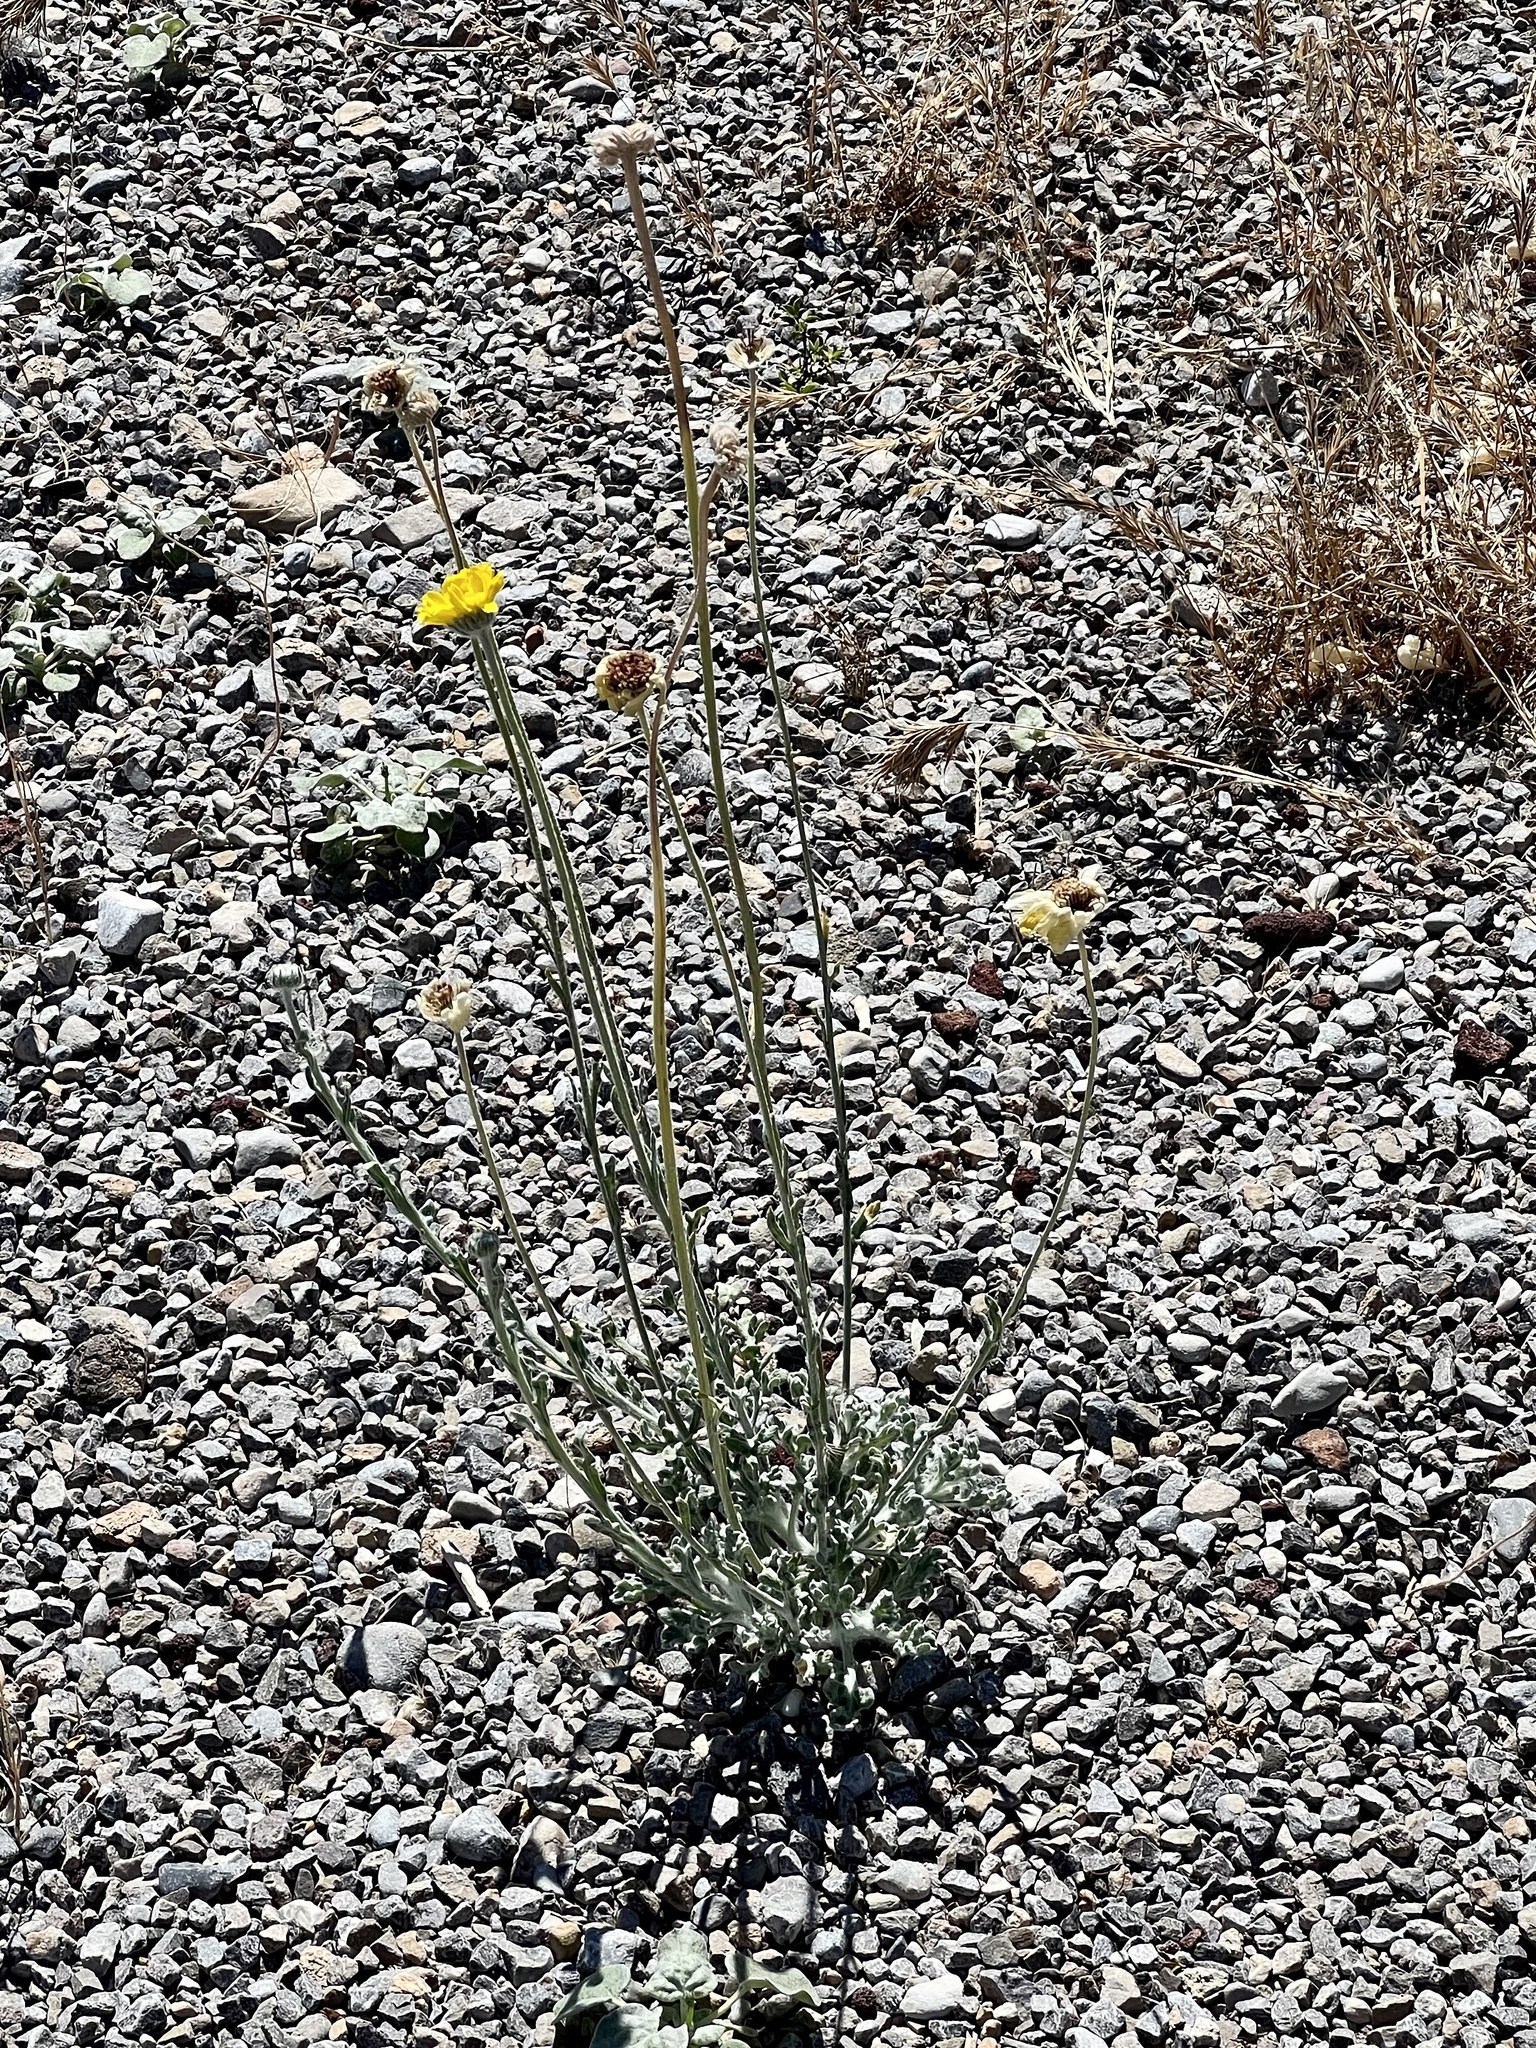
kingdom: Plantae
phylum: Tracheophyta
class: Magnoliopsida
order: Asterales
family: Asteraceae
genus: Baileya
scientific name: Baileya multiradiata
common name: Desert-marigold
